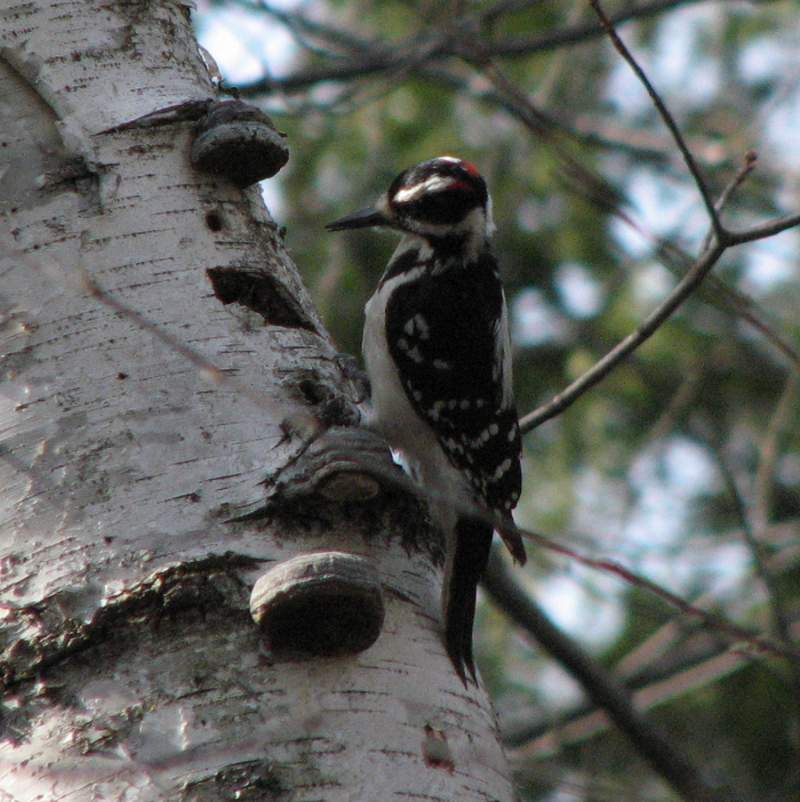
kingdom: Animalia
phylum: Chordata
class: Aves
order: Piciformes
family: Picidae
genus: Leuconotopicus
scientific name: Leuconotopicus villosus
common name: Hairy woodpecker
